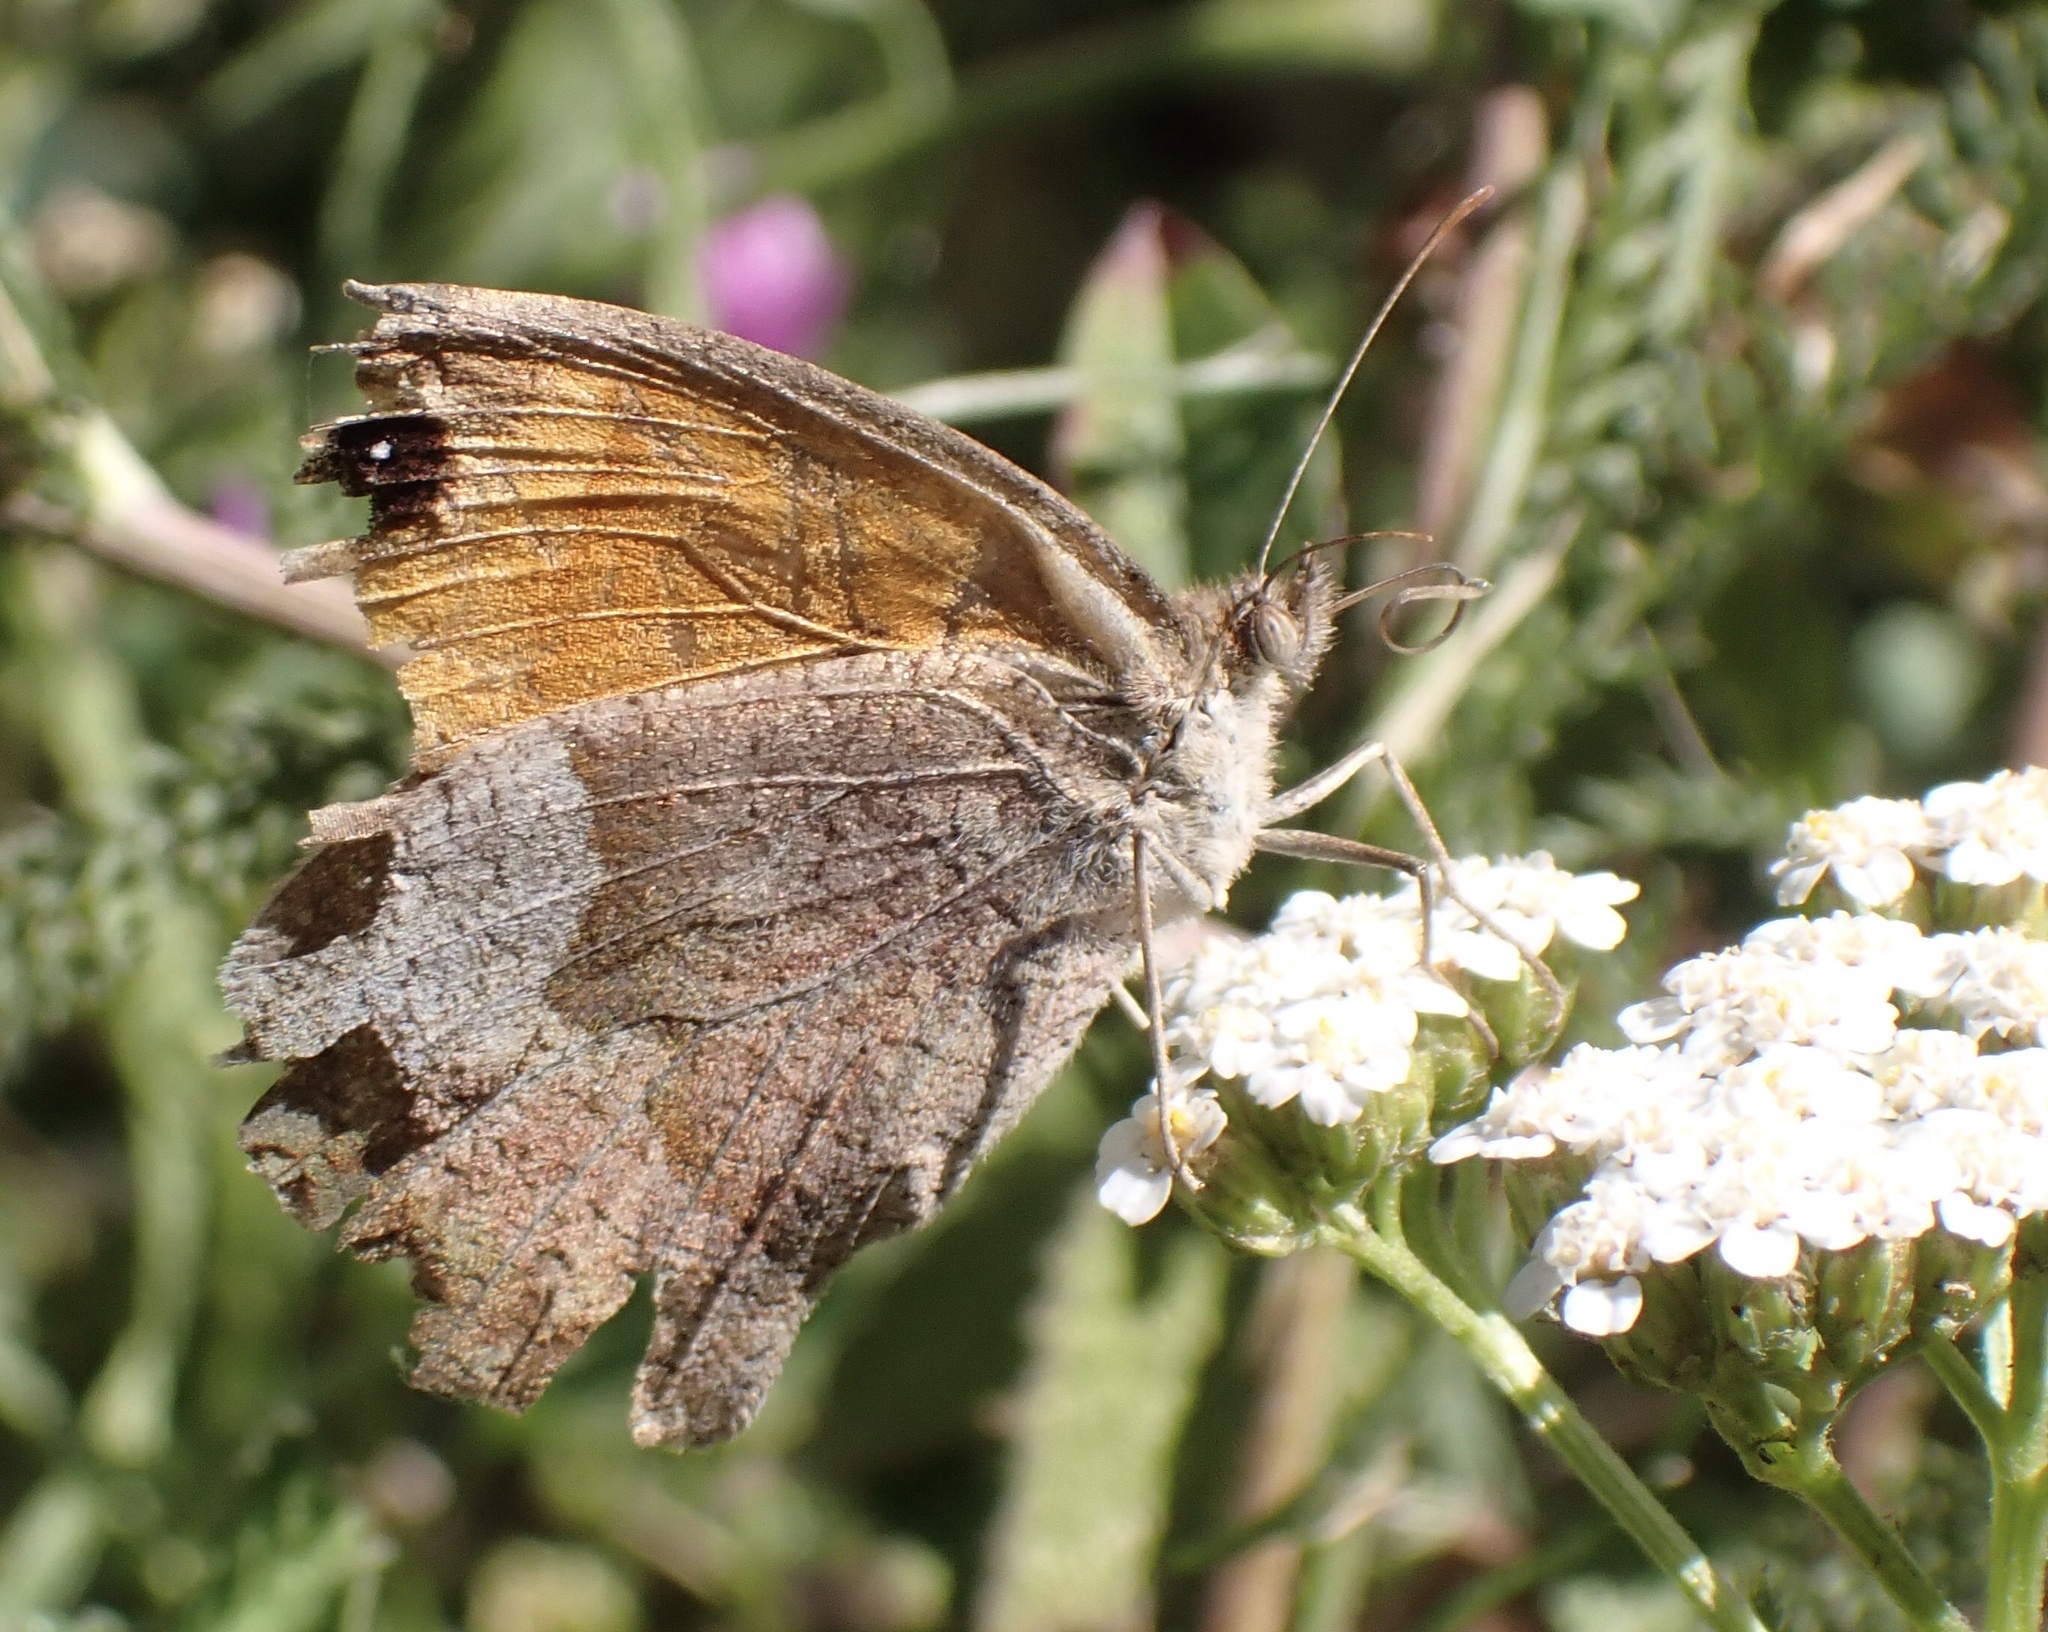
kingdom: Animalia
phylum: Arthropoda
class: Insecta
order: Lepidoptera
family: Nymphalidae
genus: Maniola
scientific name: Maniola jurtina
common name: Meadow brown
